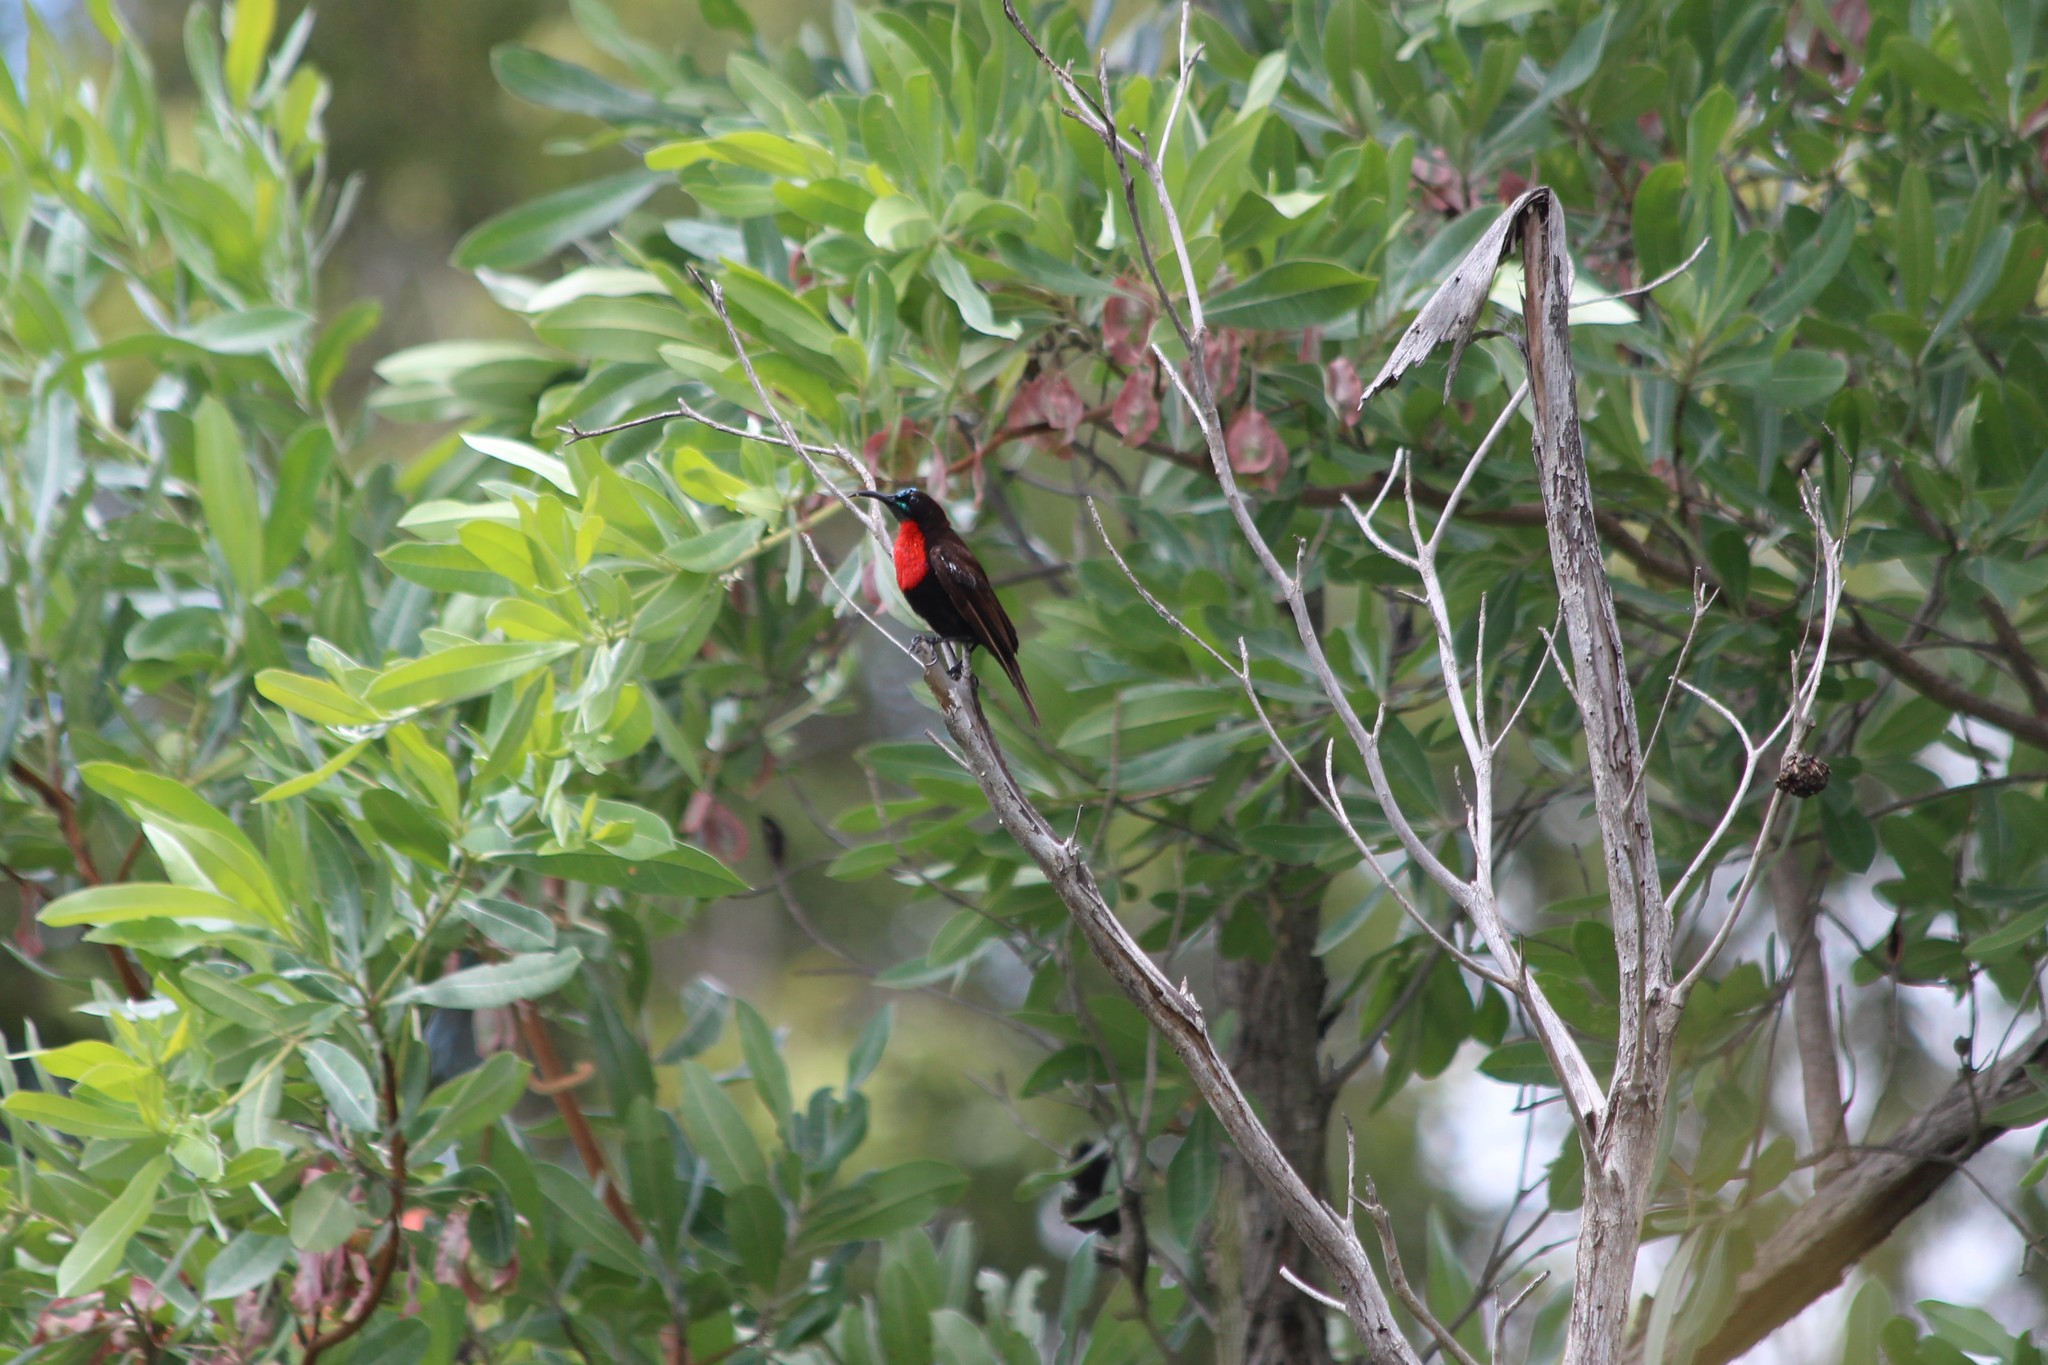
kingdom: Animalia
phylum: Chordata
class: Aves
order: Passeriformes
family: Nectariniidae
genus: Chalcomitra
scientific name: Chalcomitra senegalensis
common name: Scarlet-chested sunbird
